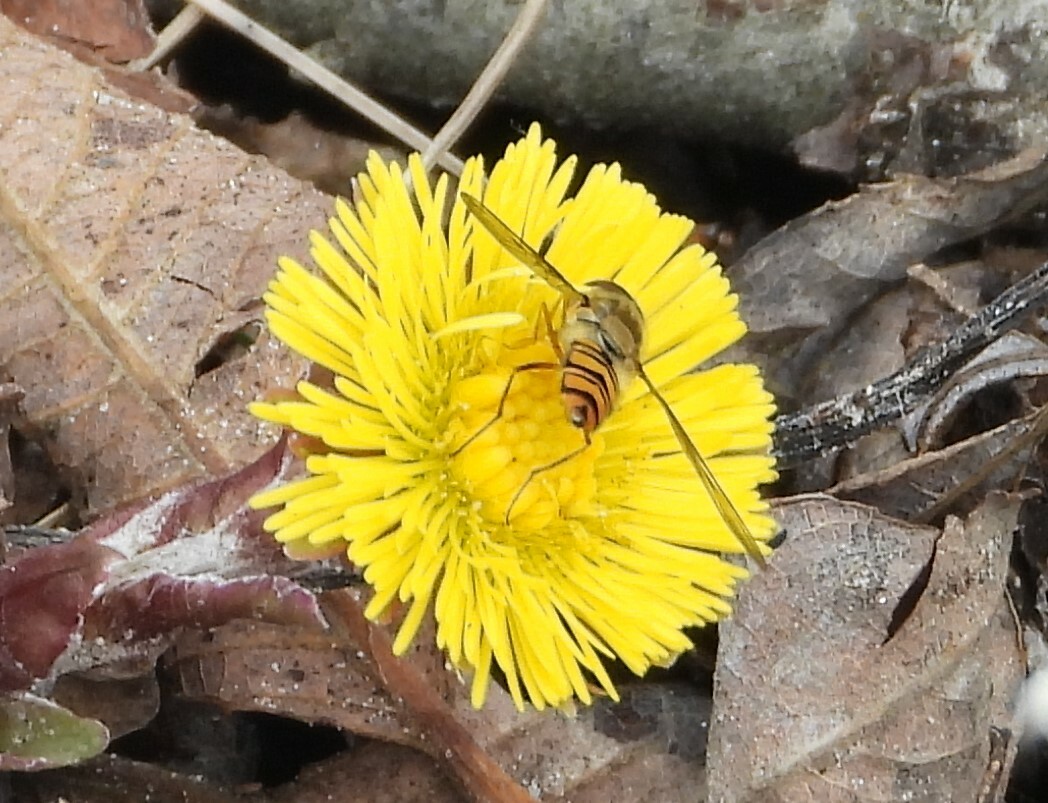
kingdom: Animalia
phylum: Arthropoda
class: Insecta
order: Diptera
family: Syrphidae
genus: Episyrphus
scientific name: Episyrphus balteatus
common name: Marmalade hoverfly
